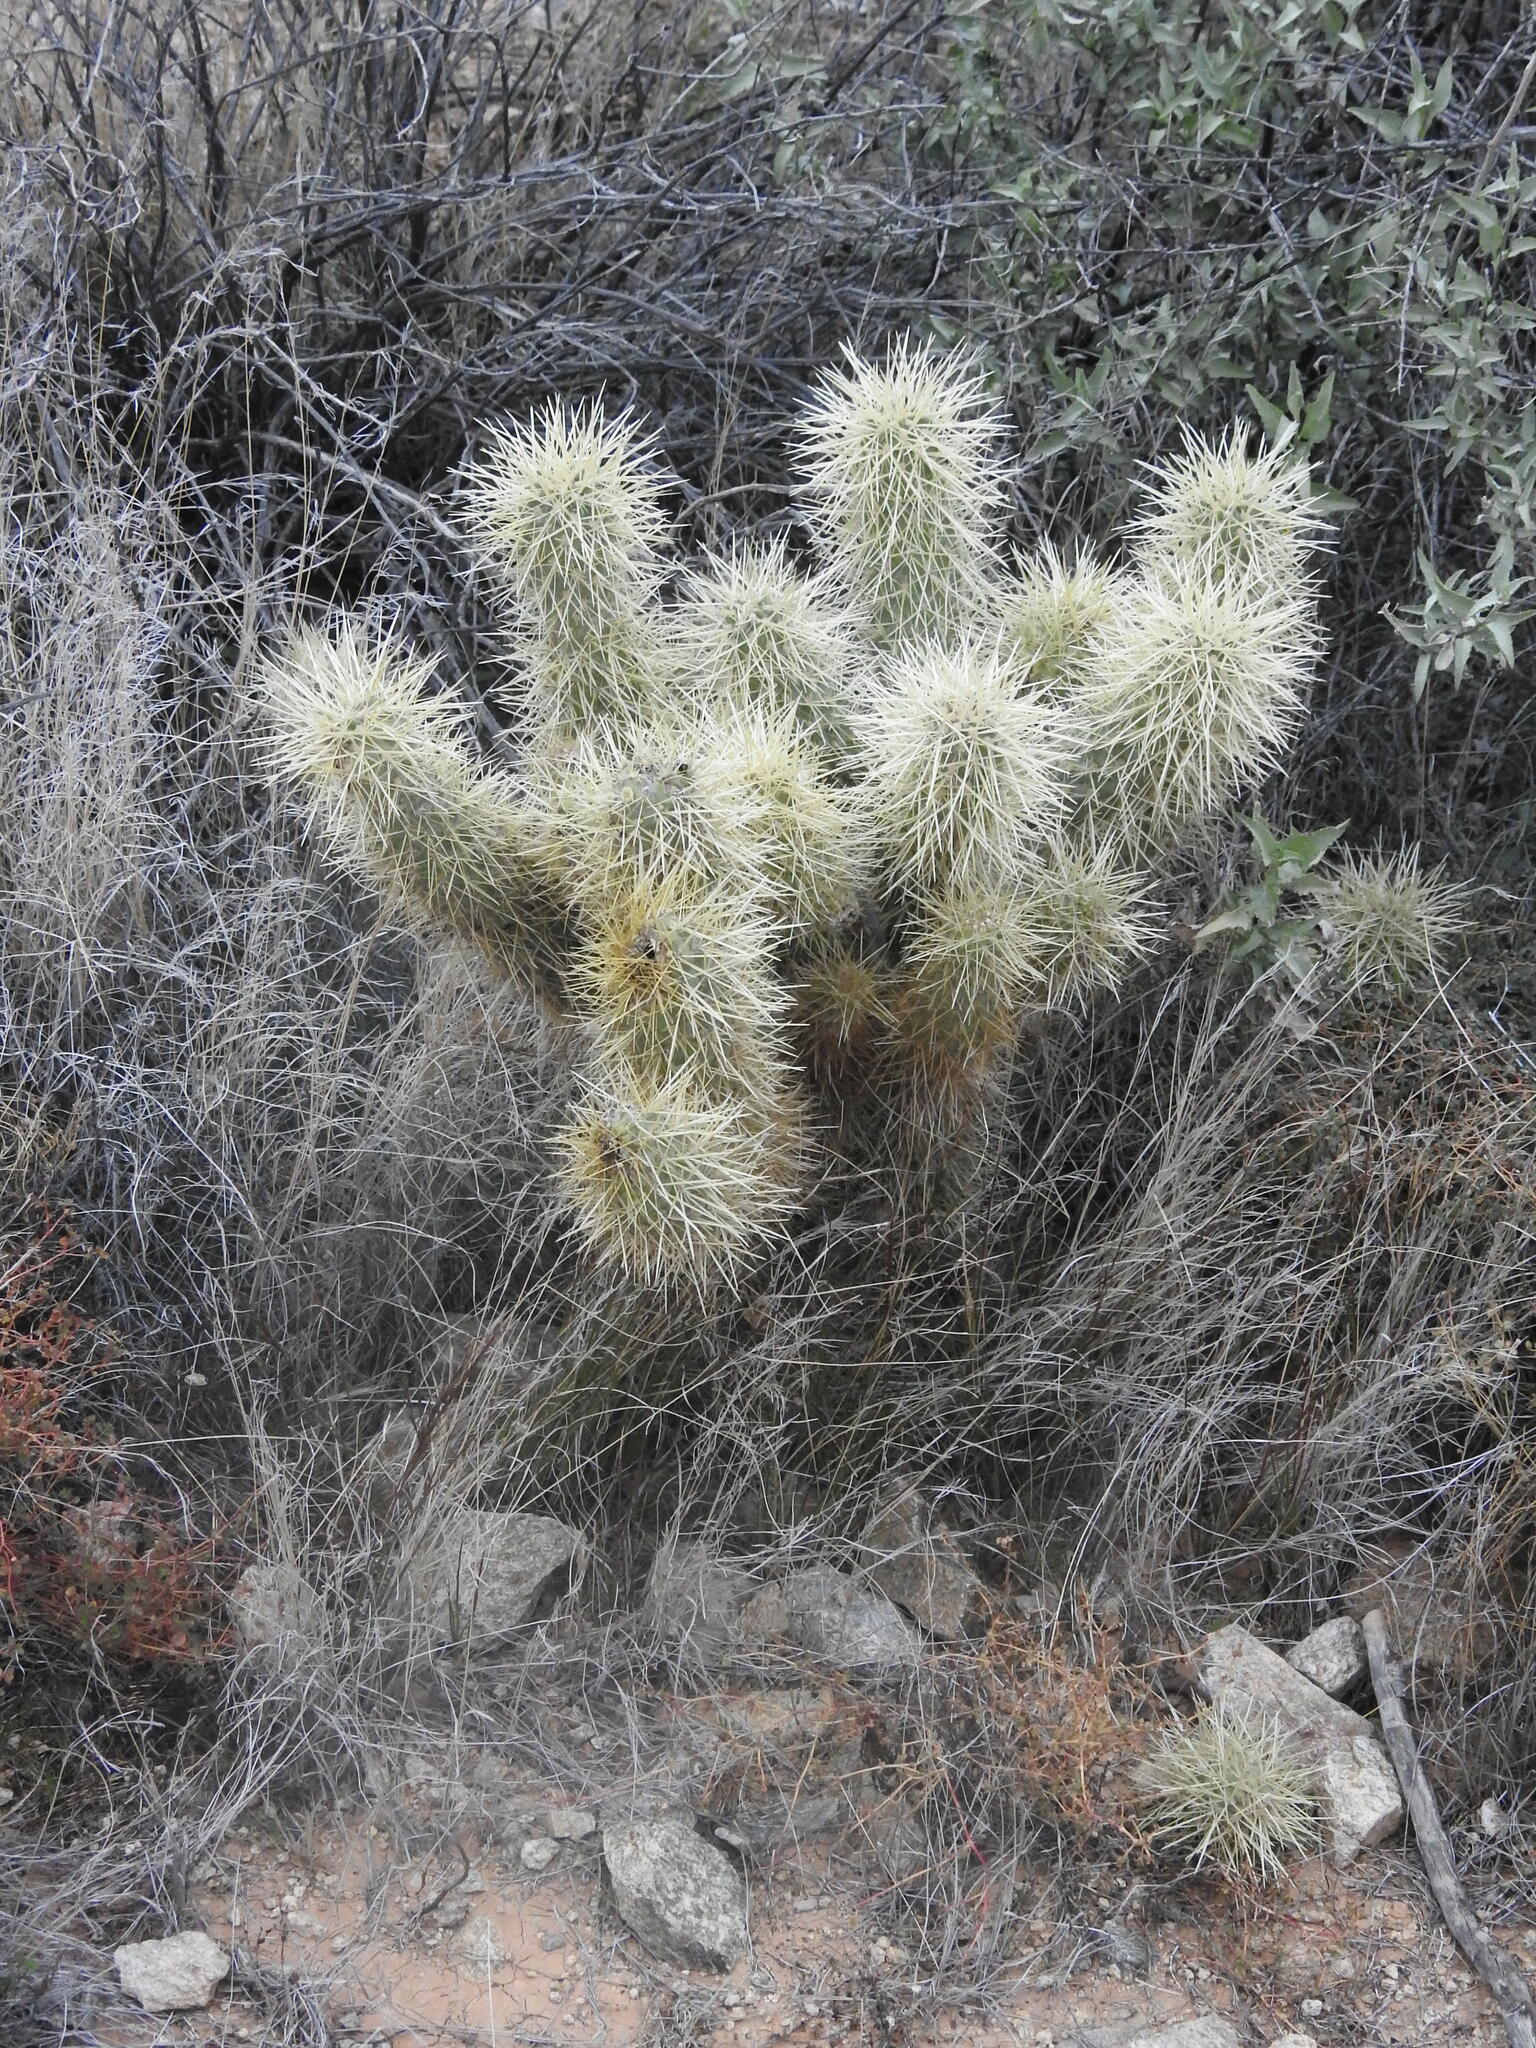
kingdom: Plantae
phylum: Tracheophyta
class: Magnoliopsida
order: Caryophyllales
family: Cactaceae
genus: Cylindropuntia
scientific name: Cylindropuntia fosbergii
